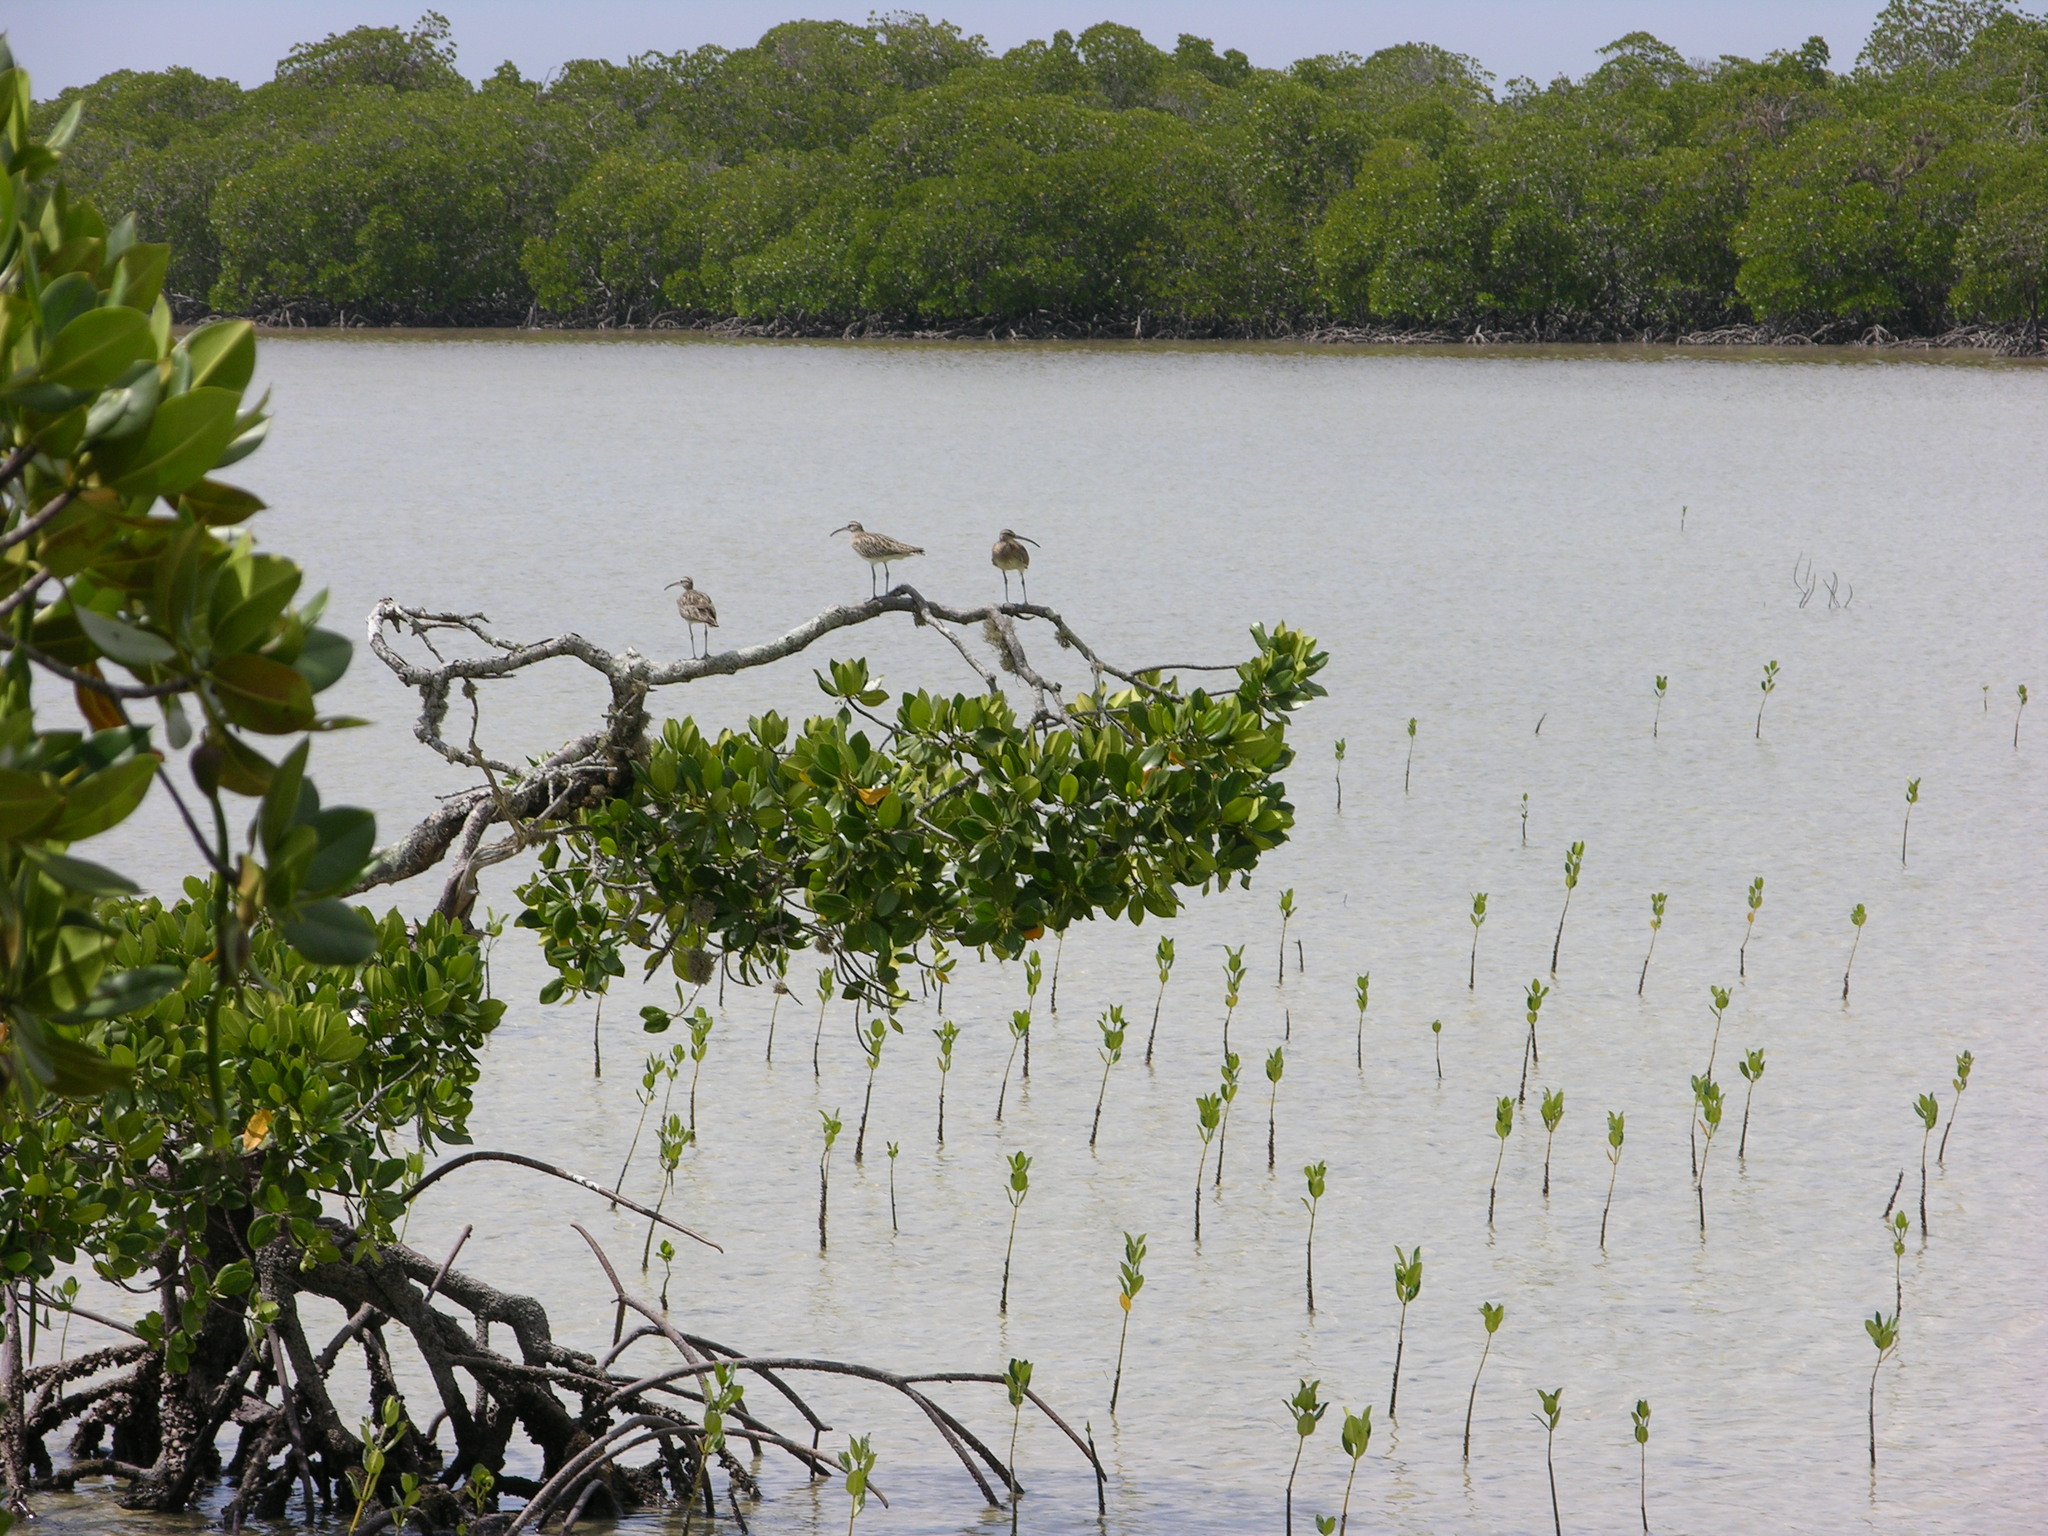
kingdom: Animalia
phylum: Chordata
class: Aves
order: Charadriiformes
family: Scolopacidae
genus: Numenius
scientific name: Numenius phaeopus
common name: Whimbrel
